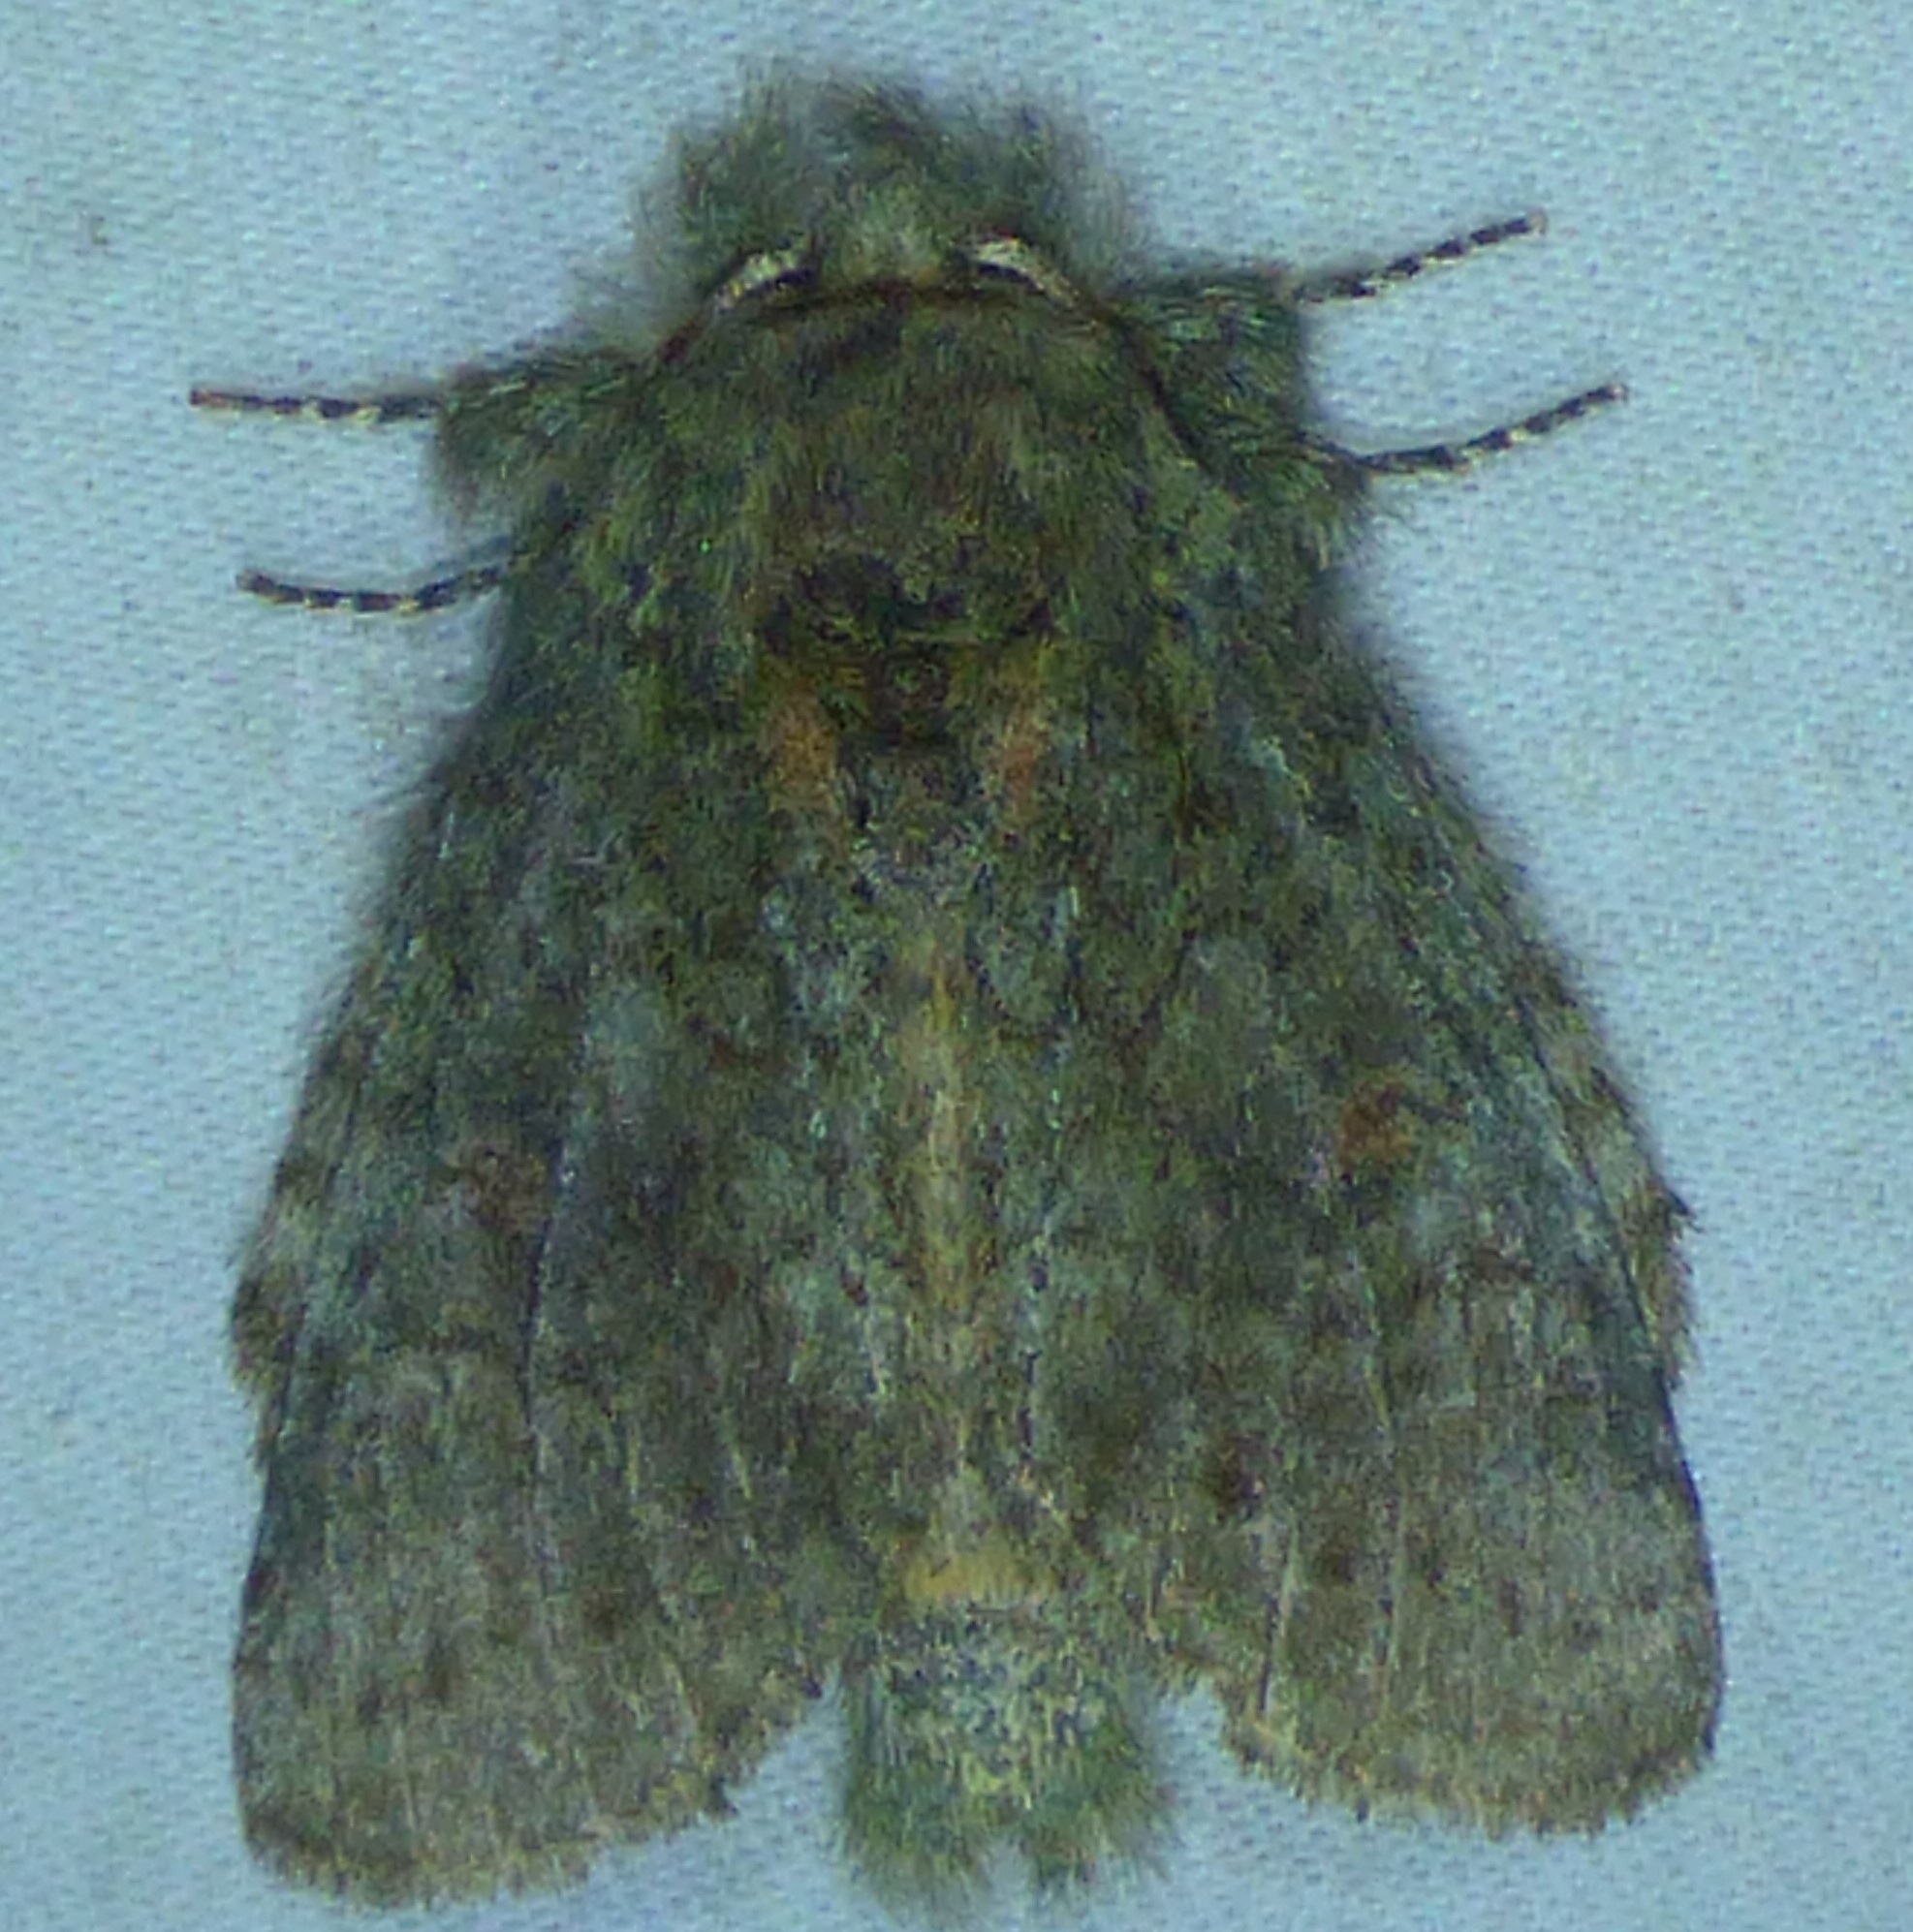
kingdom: Animalia
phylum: Arthropoda
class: Insecta
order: Lepidoptera
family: Notodontidae
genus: Disphragis
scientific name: Disphragis Cecrita biundata
